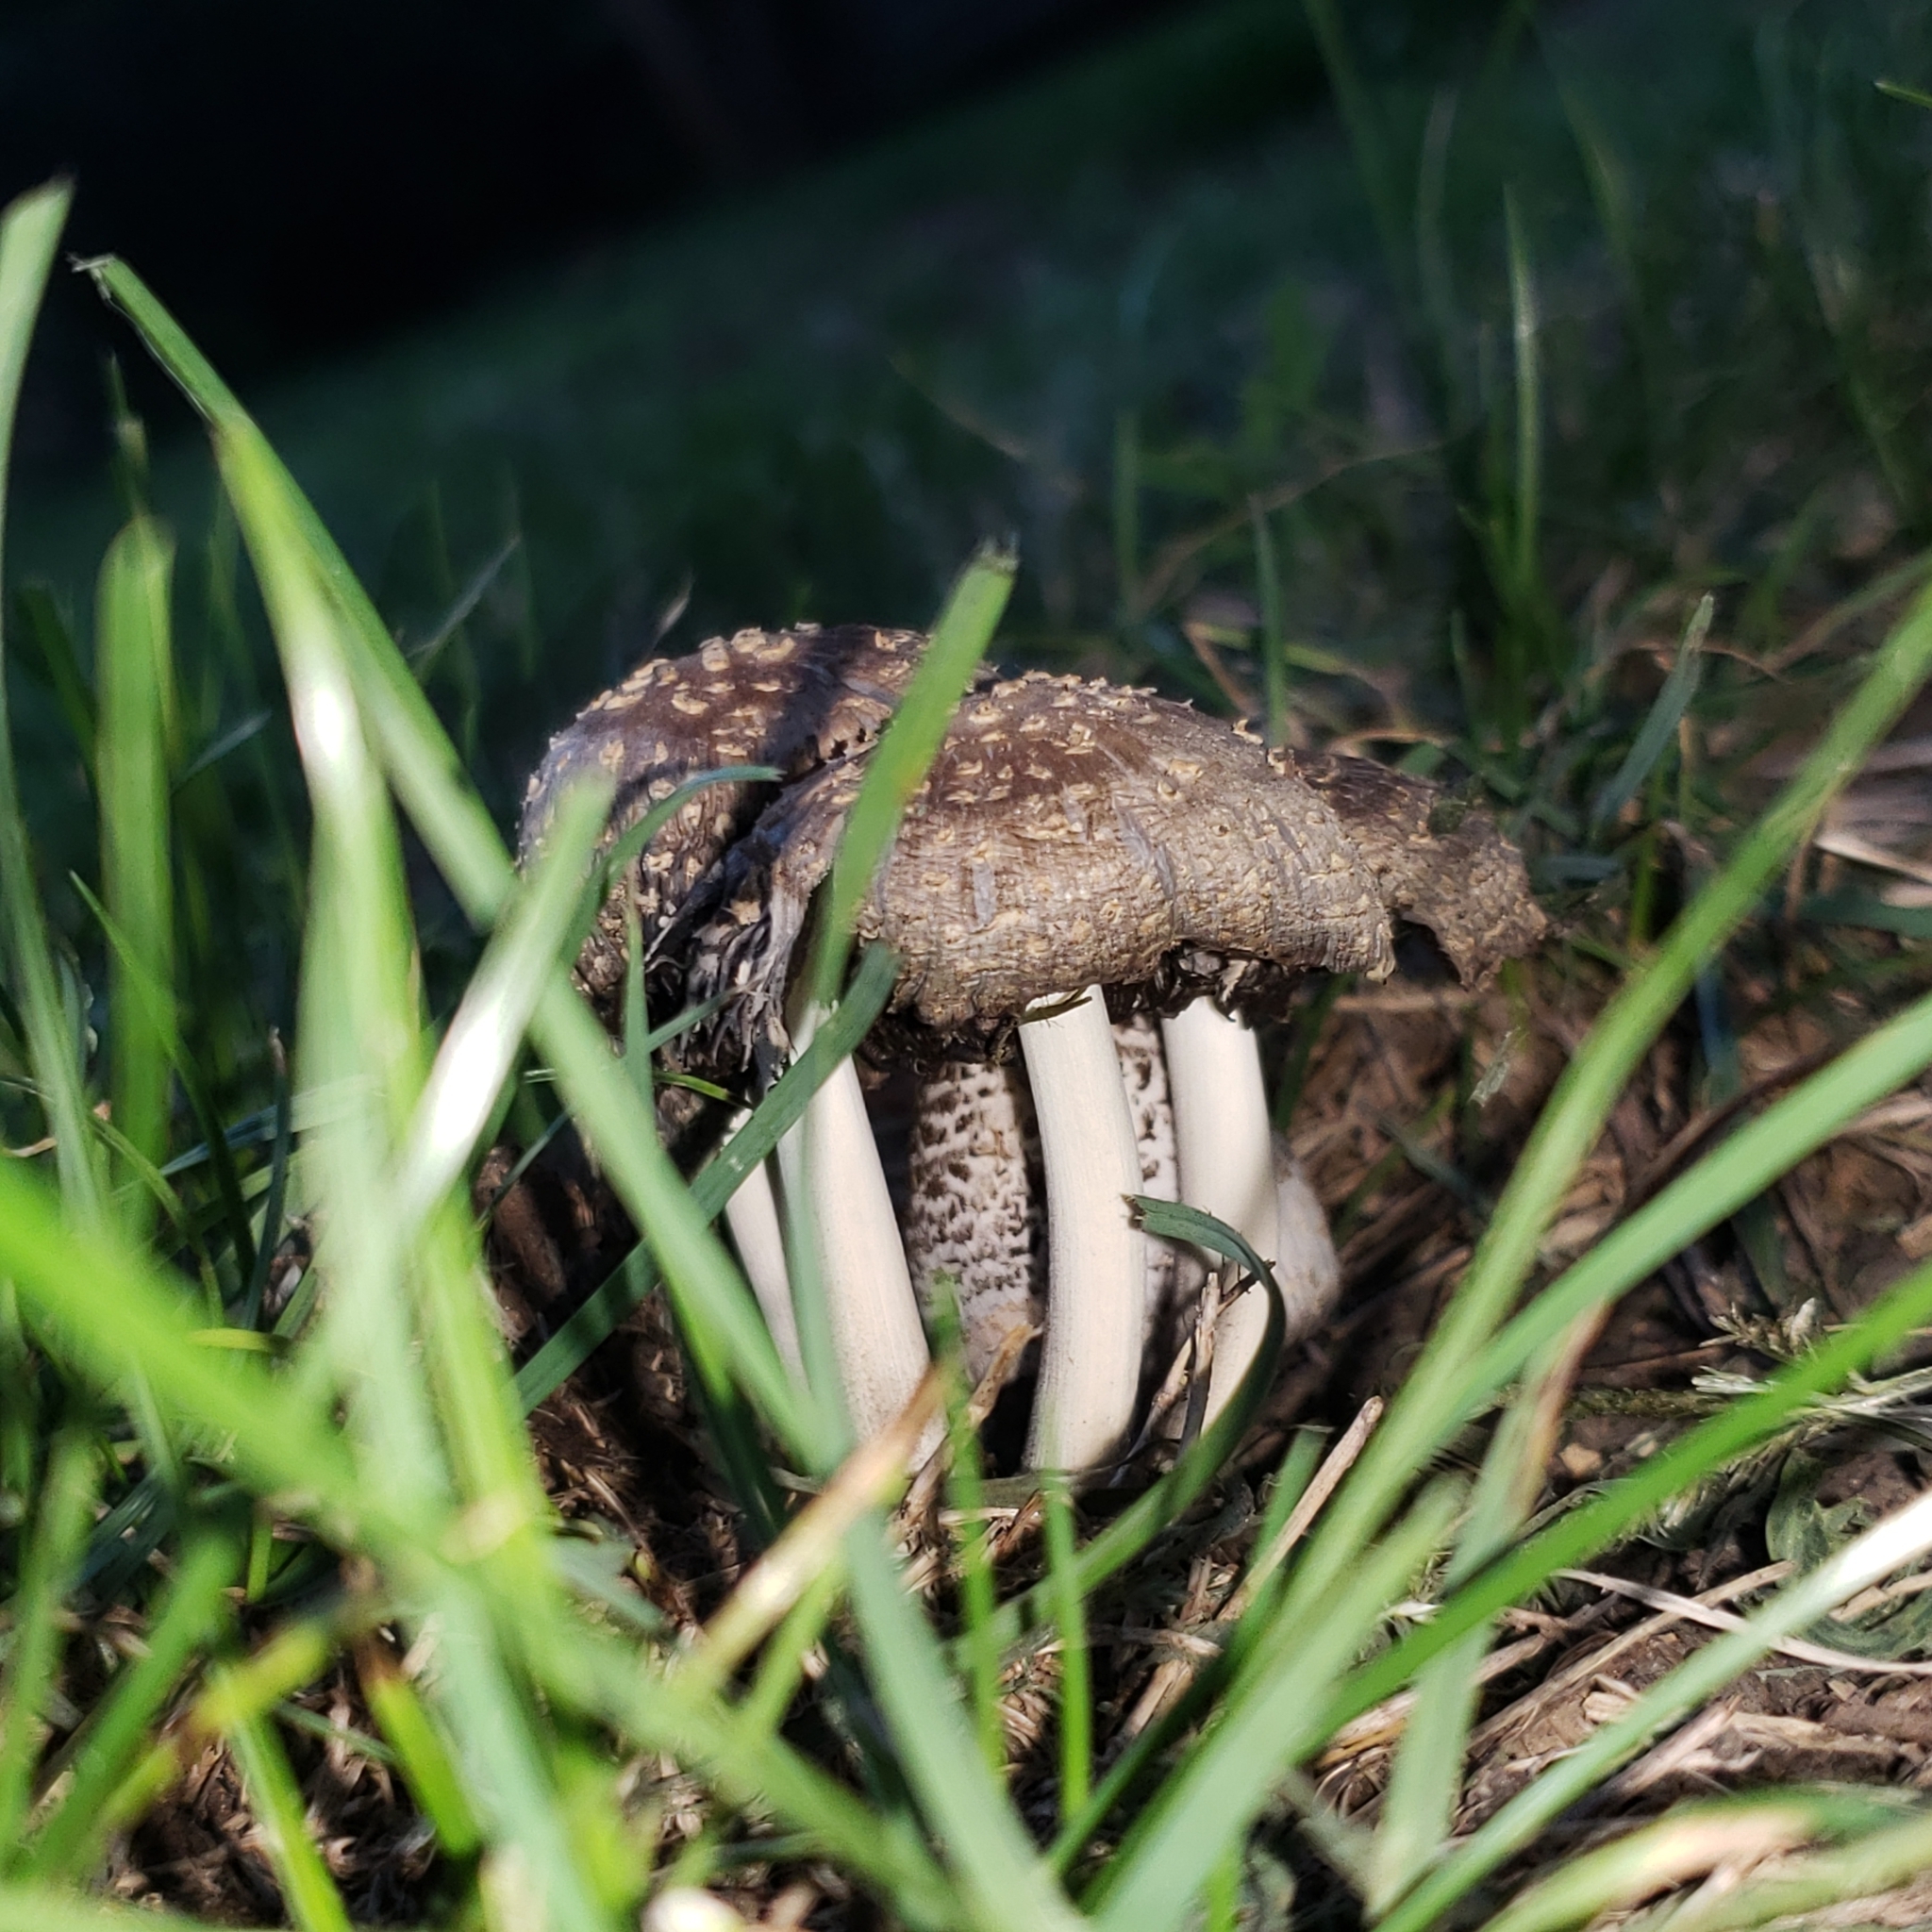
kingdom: Fungi
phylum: Basidiomycota
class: Agaricomycetes
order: Agaricales
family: Psathyrellaceae
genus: Coprinopsis
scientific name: Coprinopsis variegata
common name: Scaly ink cap
